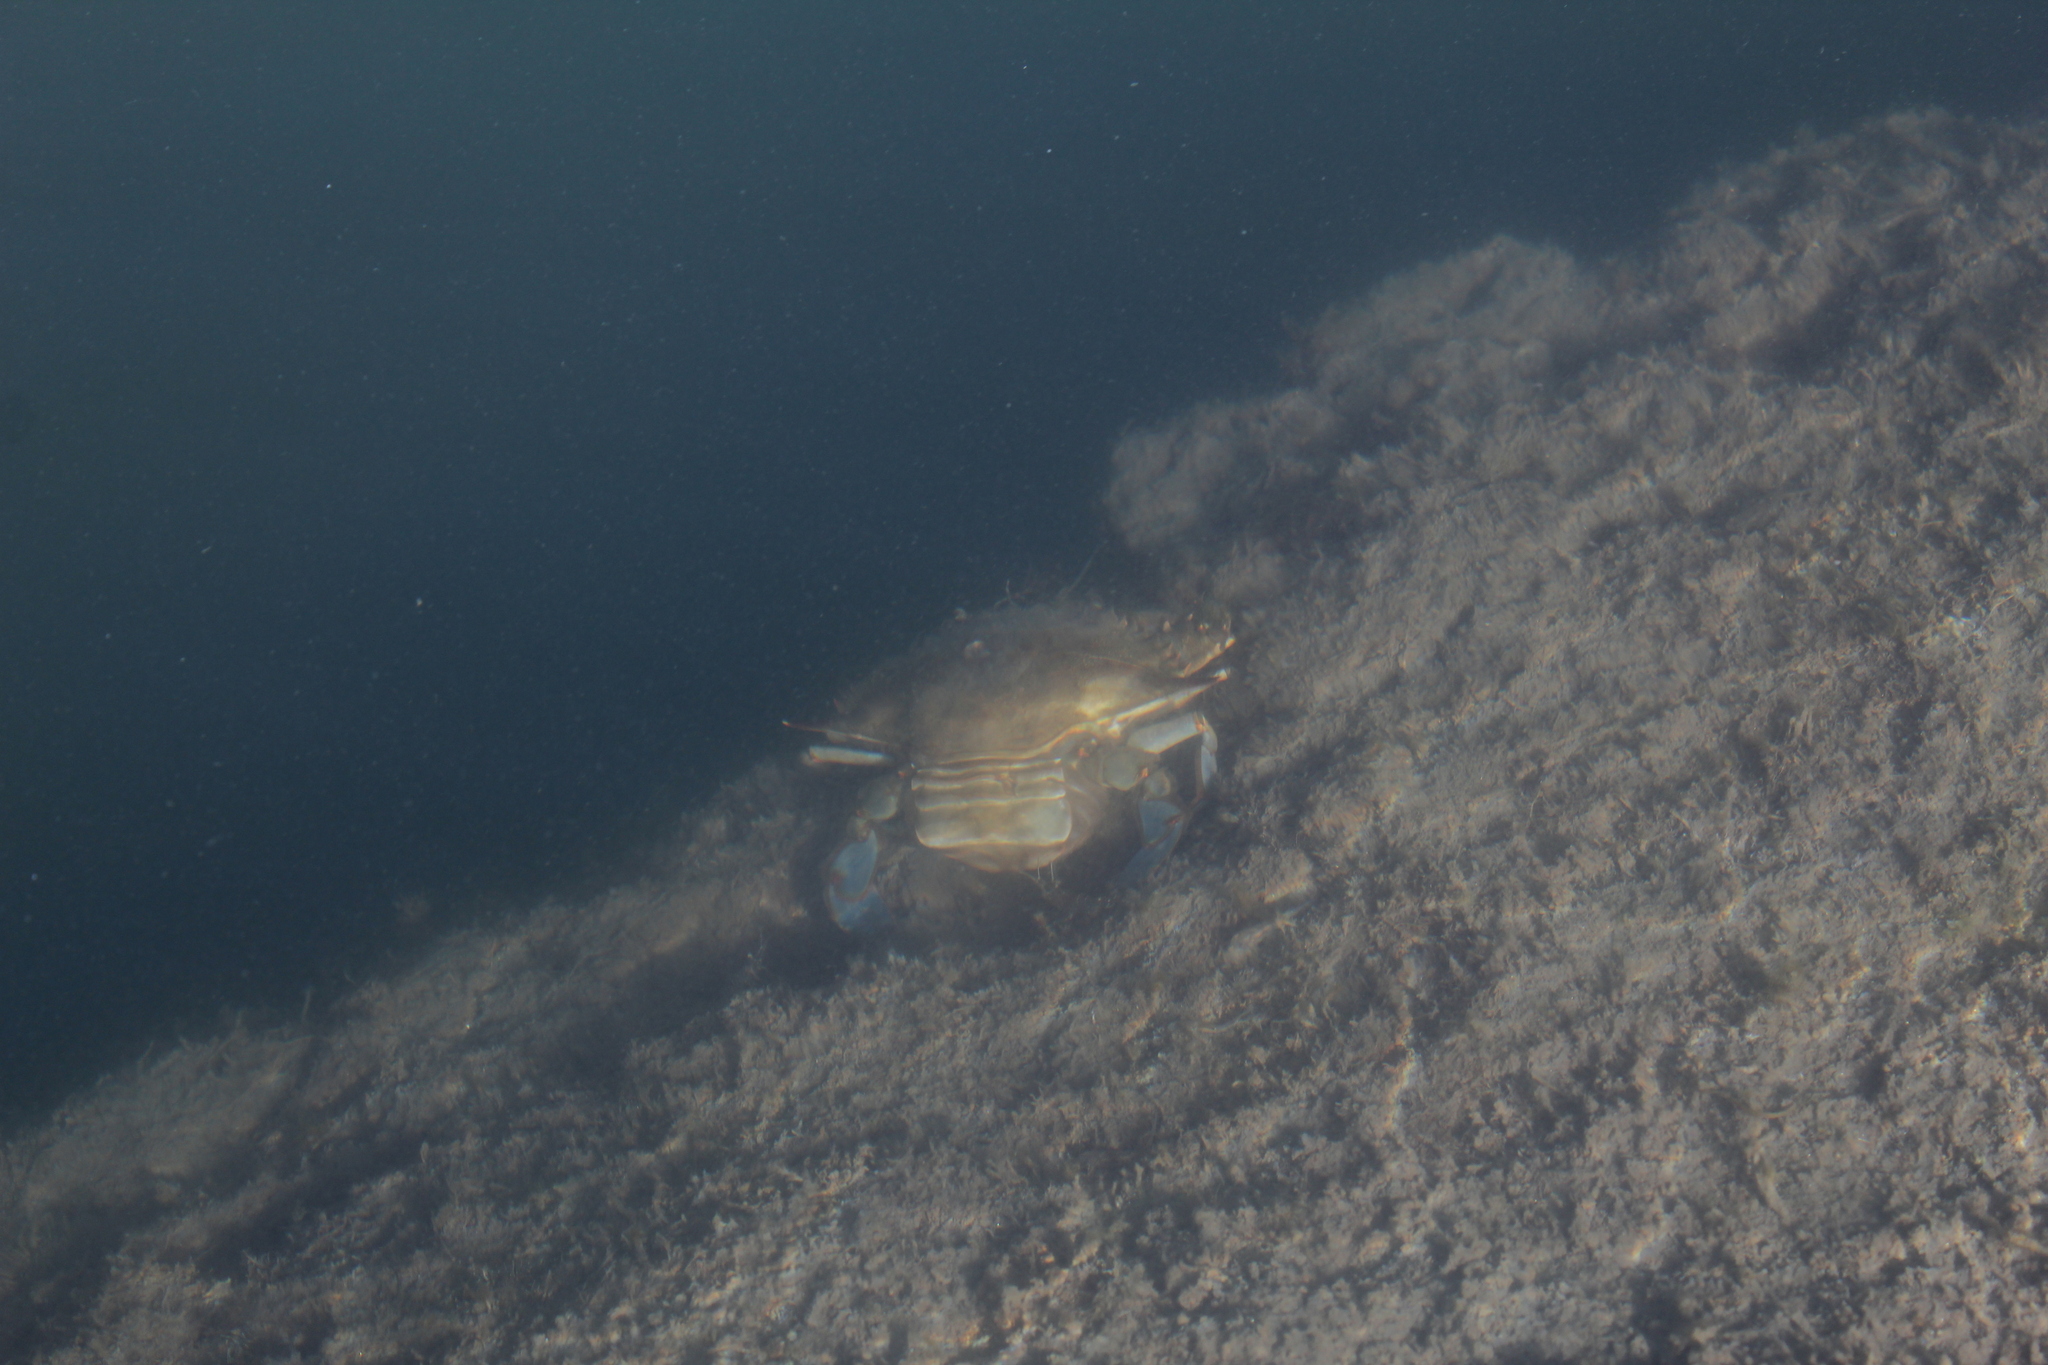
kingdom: Animalia
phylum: Arthropoda
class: Malacostraca
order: Decapoda
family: Portunidae
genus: Callinectes
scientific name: Callinectes sapidus
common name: Blue crab
